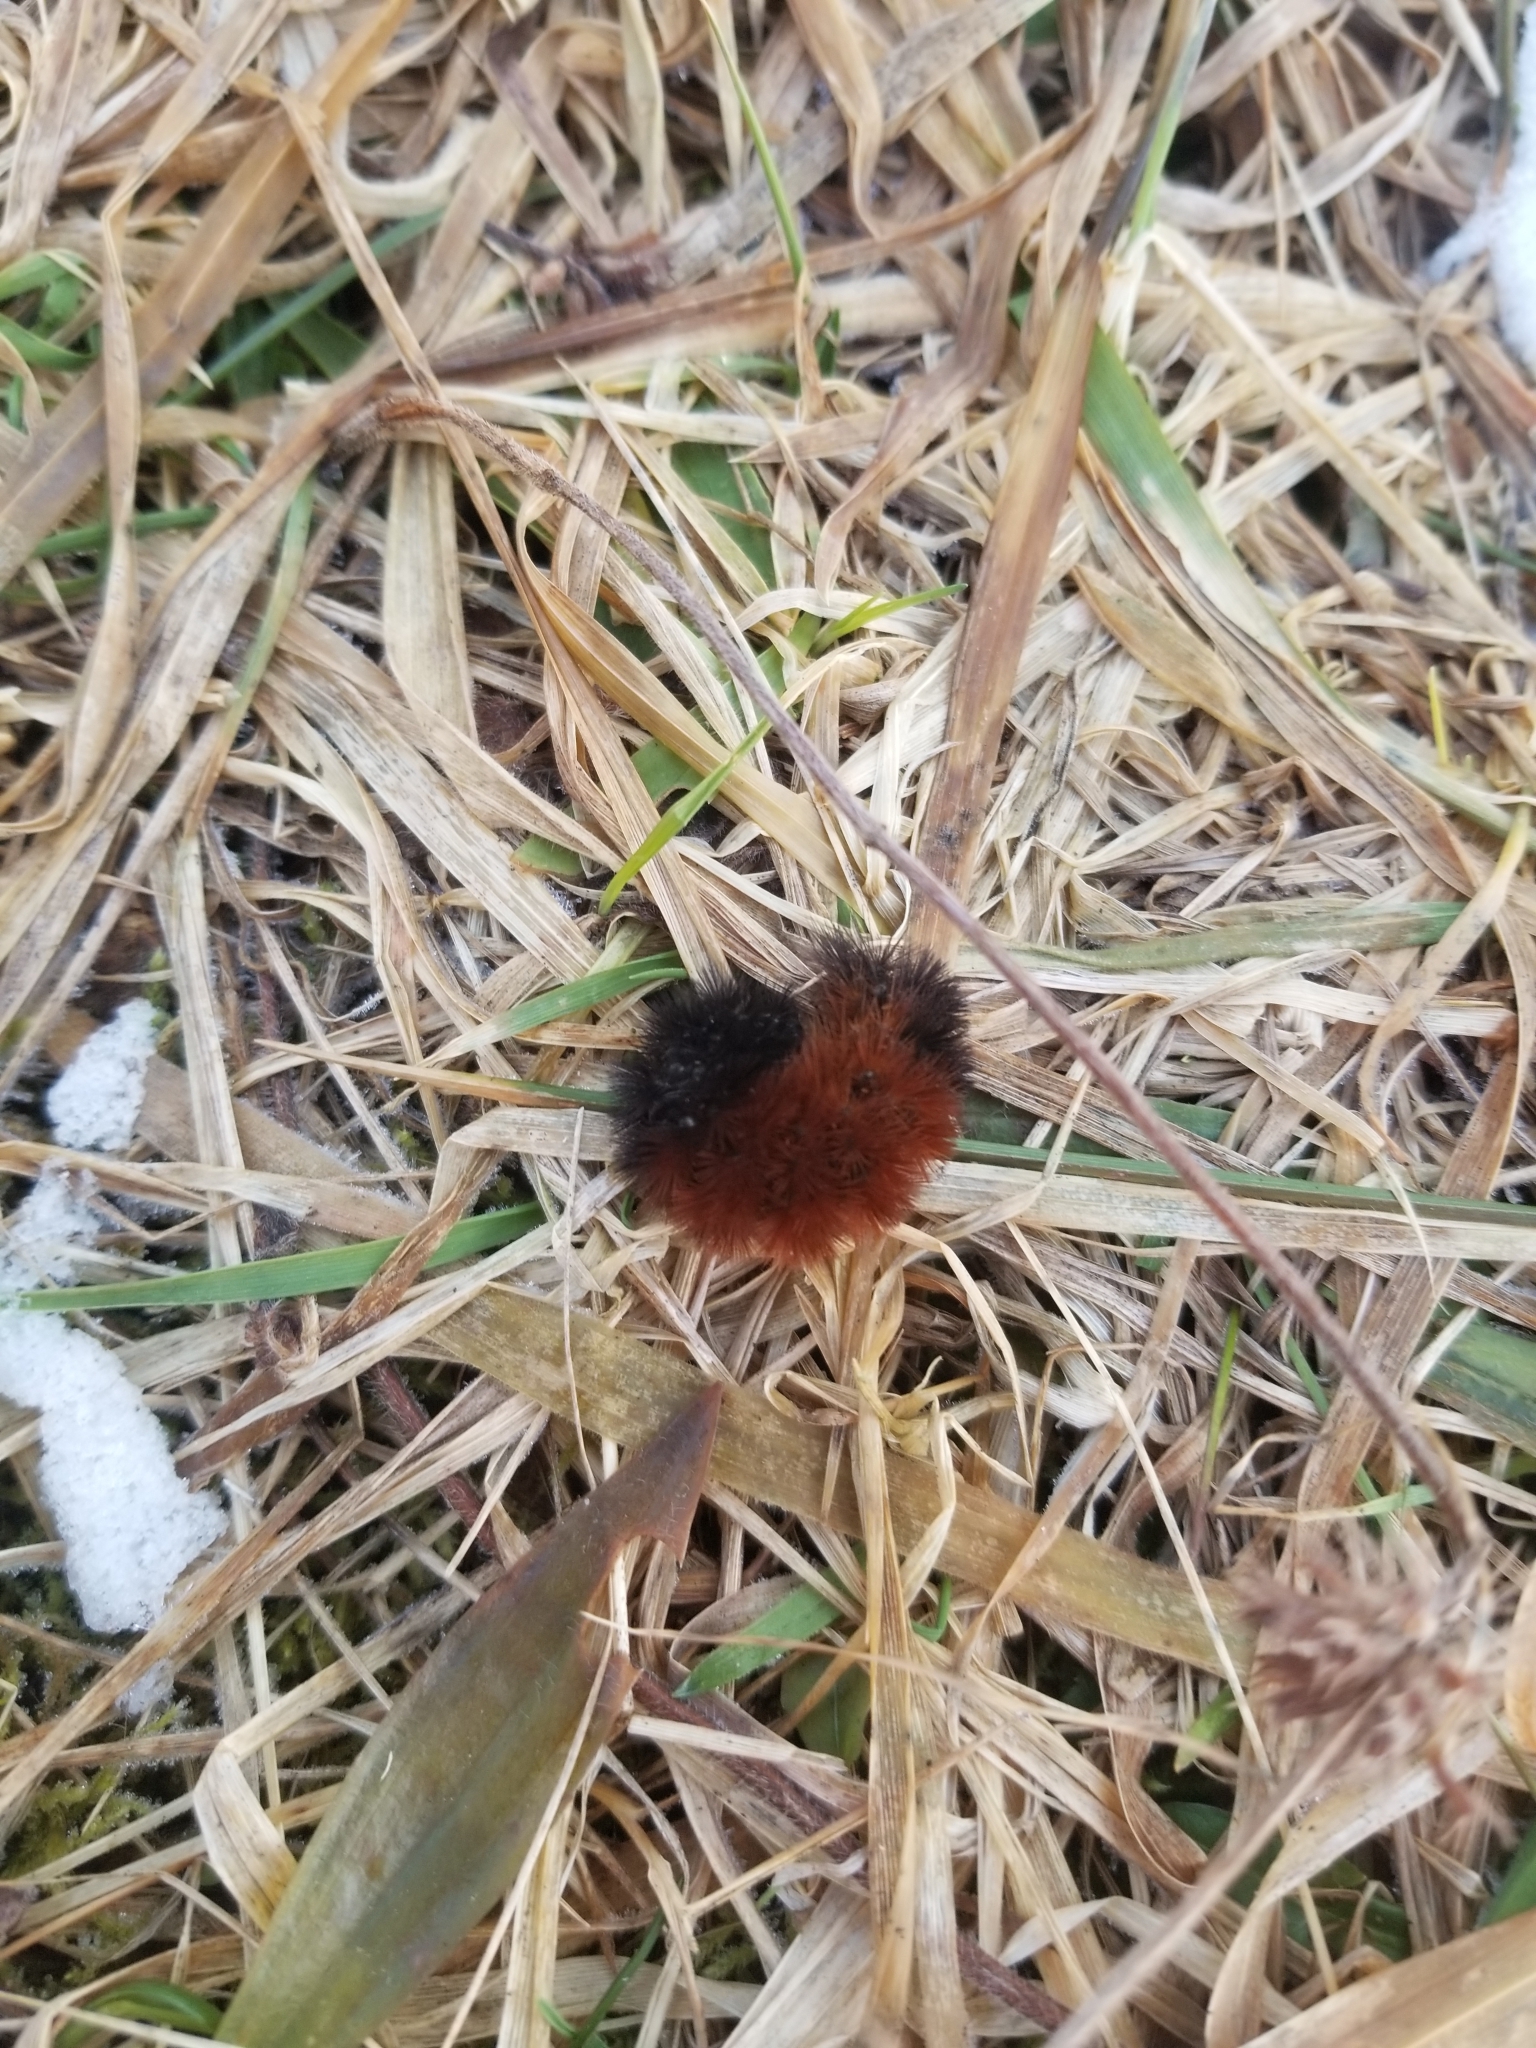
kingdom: Animalia
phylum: Arthropoda
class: Insecta
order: Lepidoptera
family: Erebidae
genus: Pyrrharctia
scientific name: Pyrrharctia isabella
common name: Isabella tiger moth
